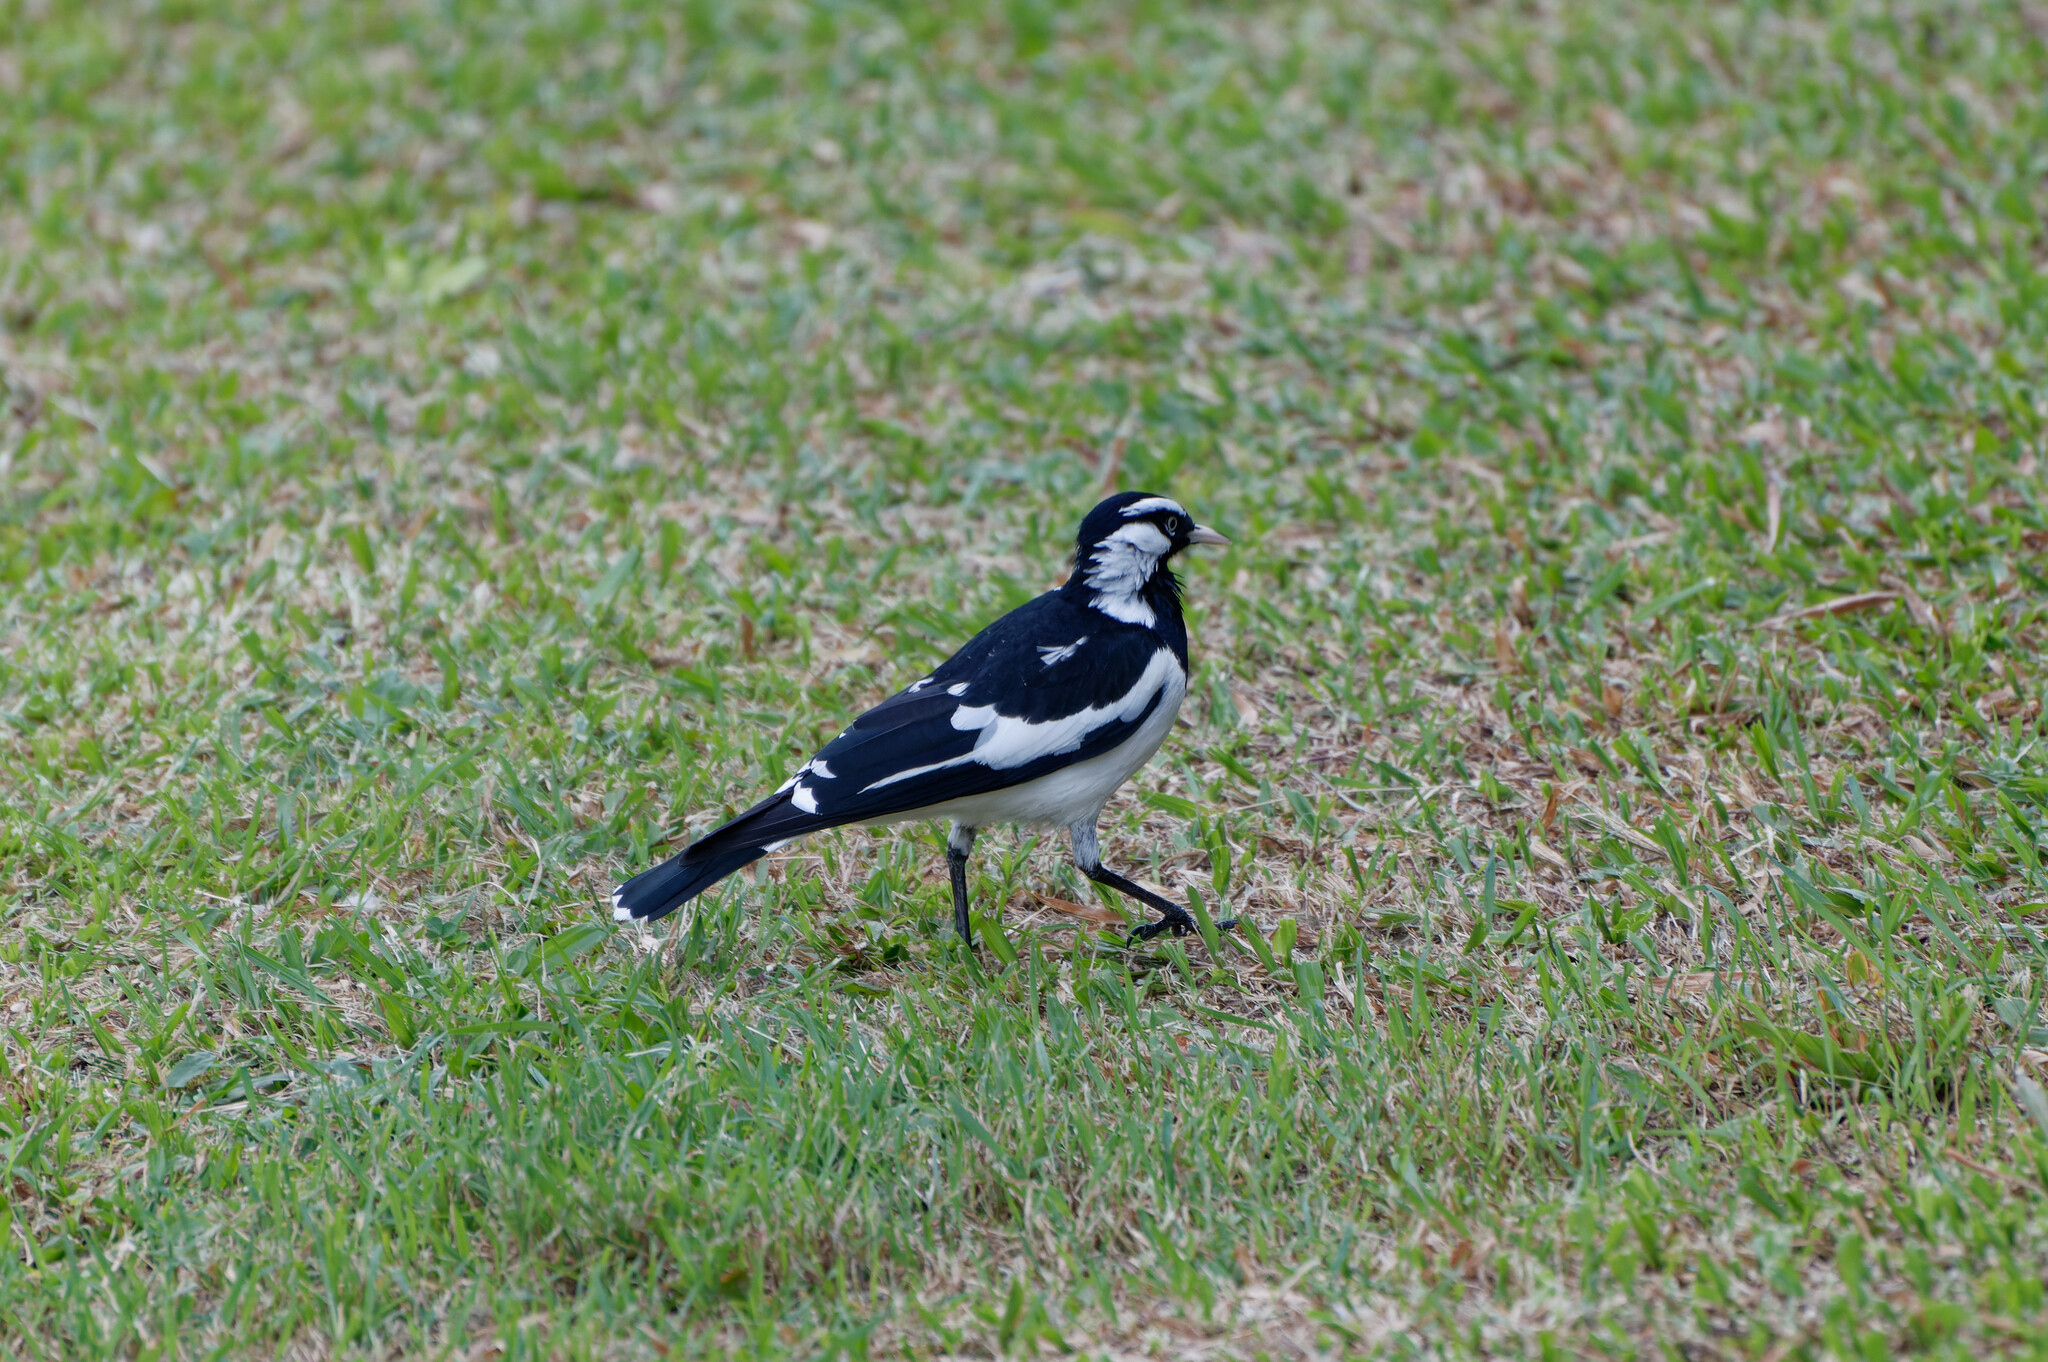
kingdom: Animalia
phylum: Chordata
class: Aves
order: Passeriformes
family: Monarchidae
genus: Grallina
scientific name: Grallina cyanoleuca
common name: Magpie-lark
